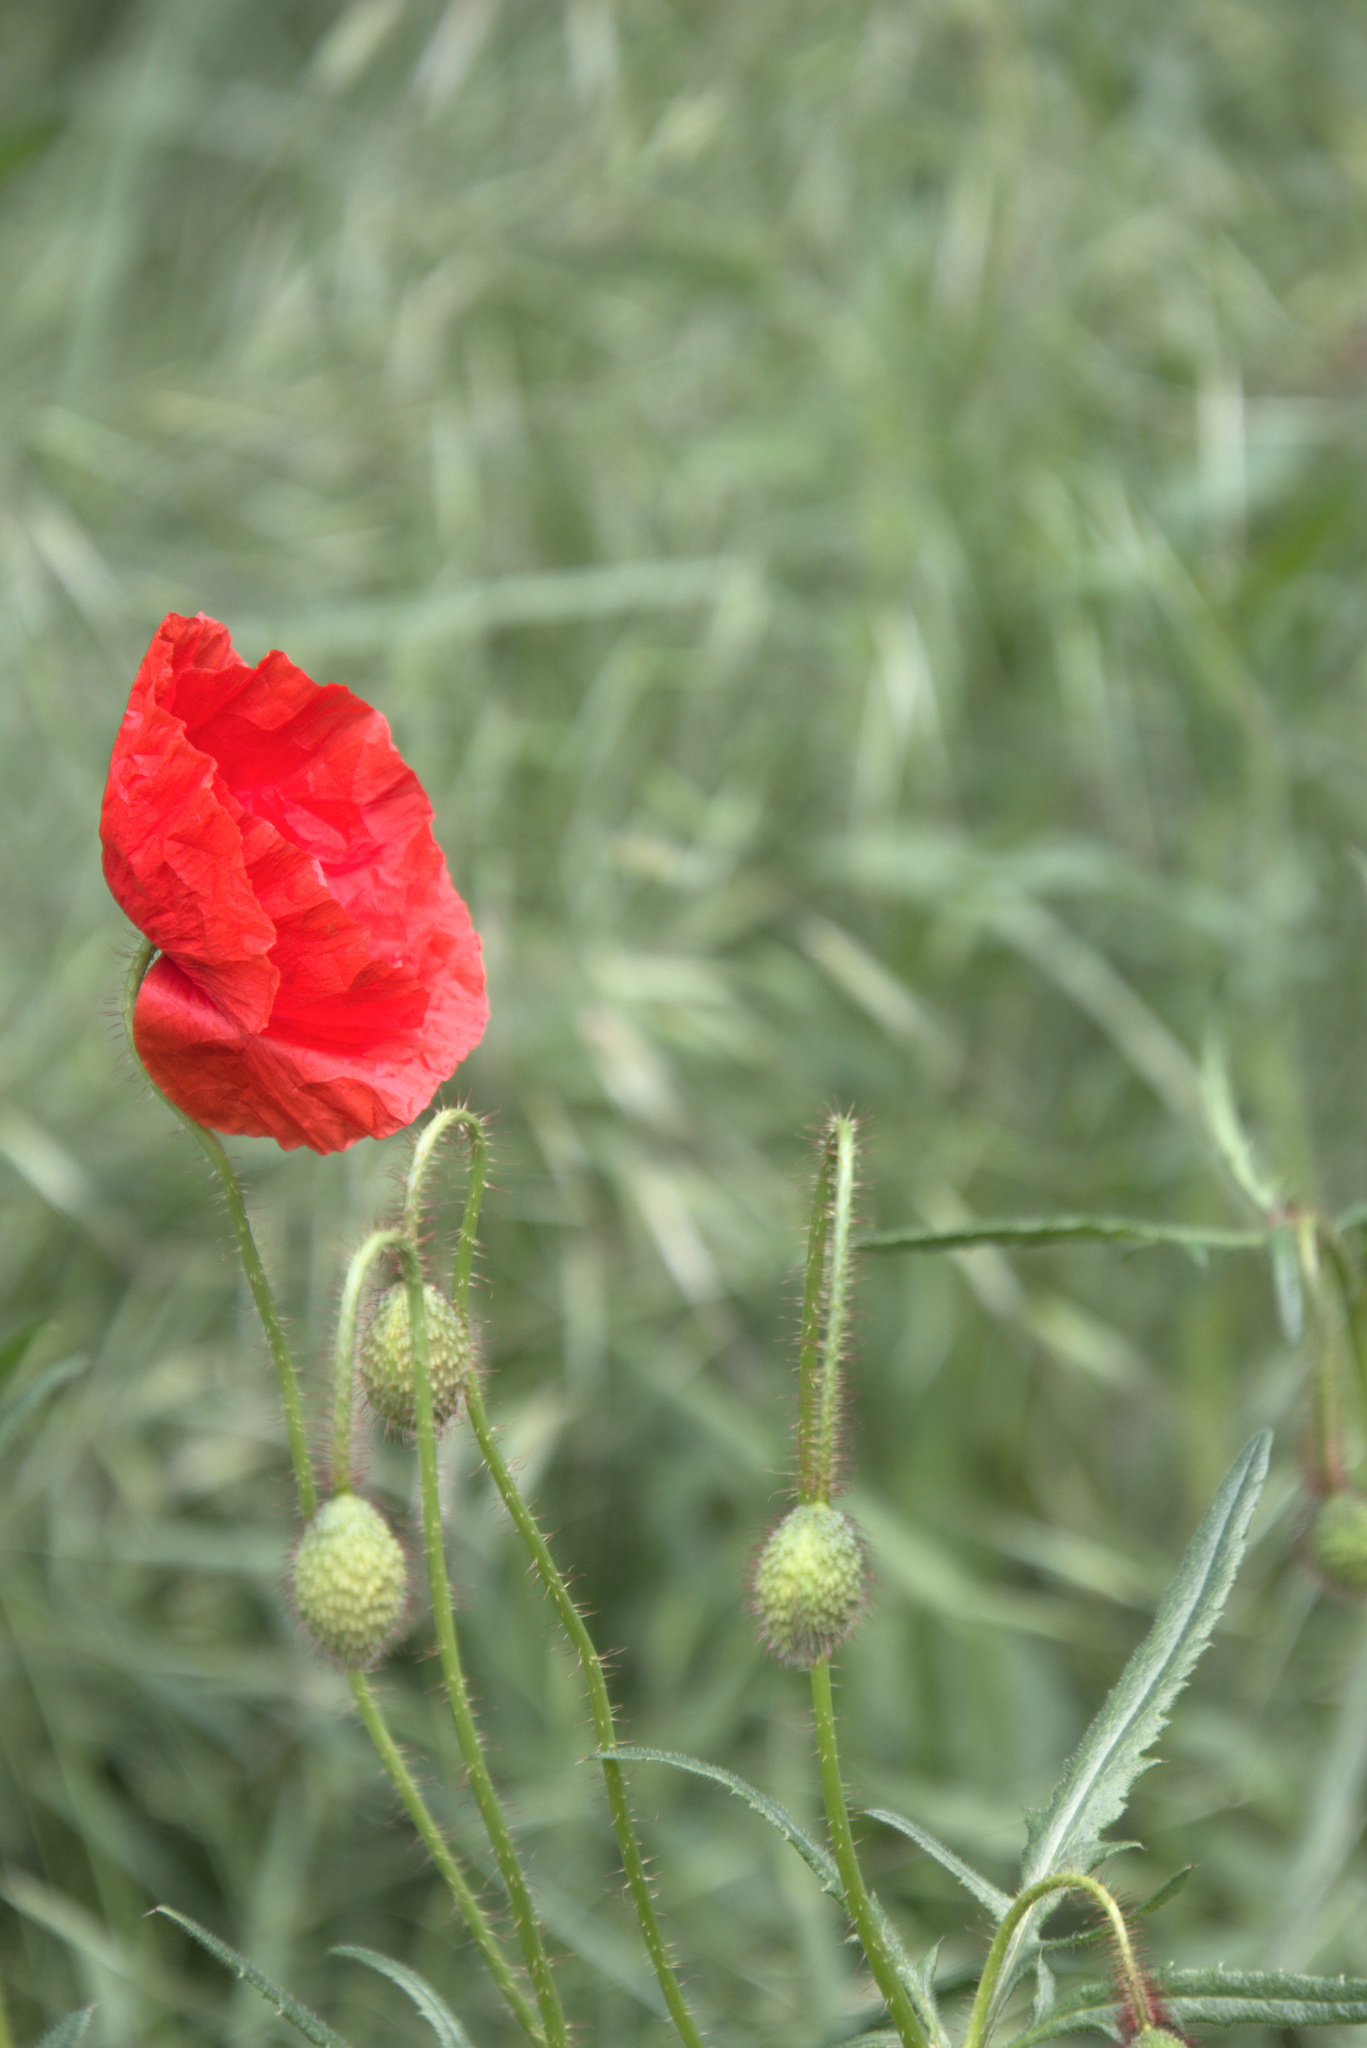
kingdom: Plantae
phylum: Tracheophyta
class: Magnoliopsida
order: Ranunculales
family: Papaveraceae
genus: Papaver
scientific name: Papaver rhoeas
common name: Corn poppy
